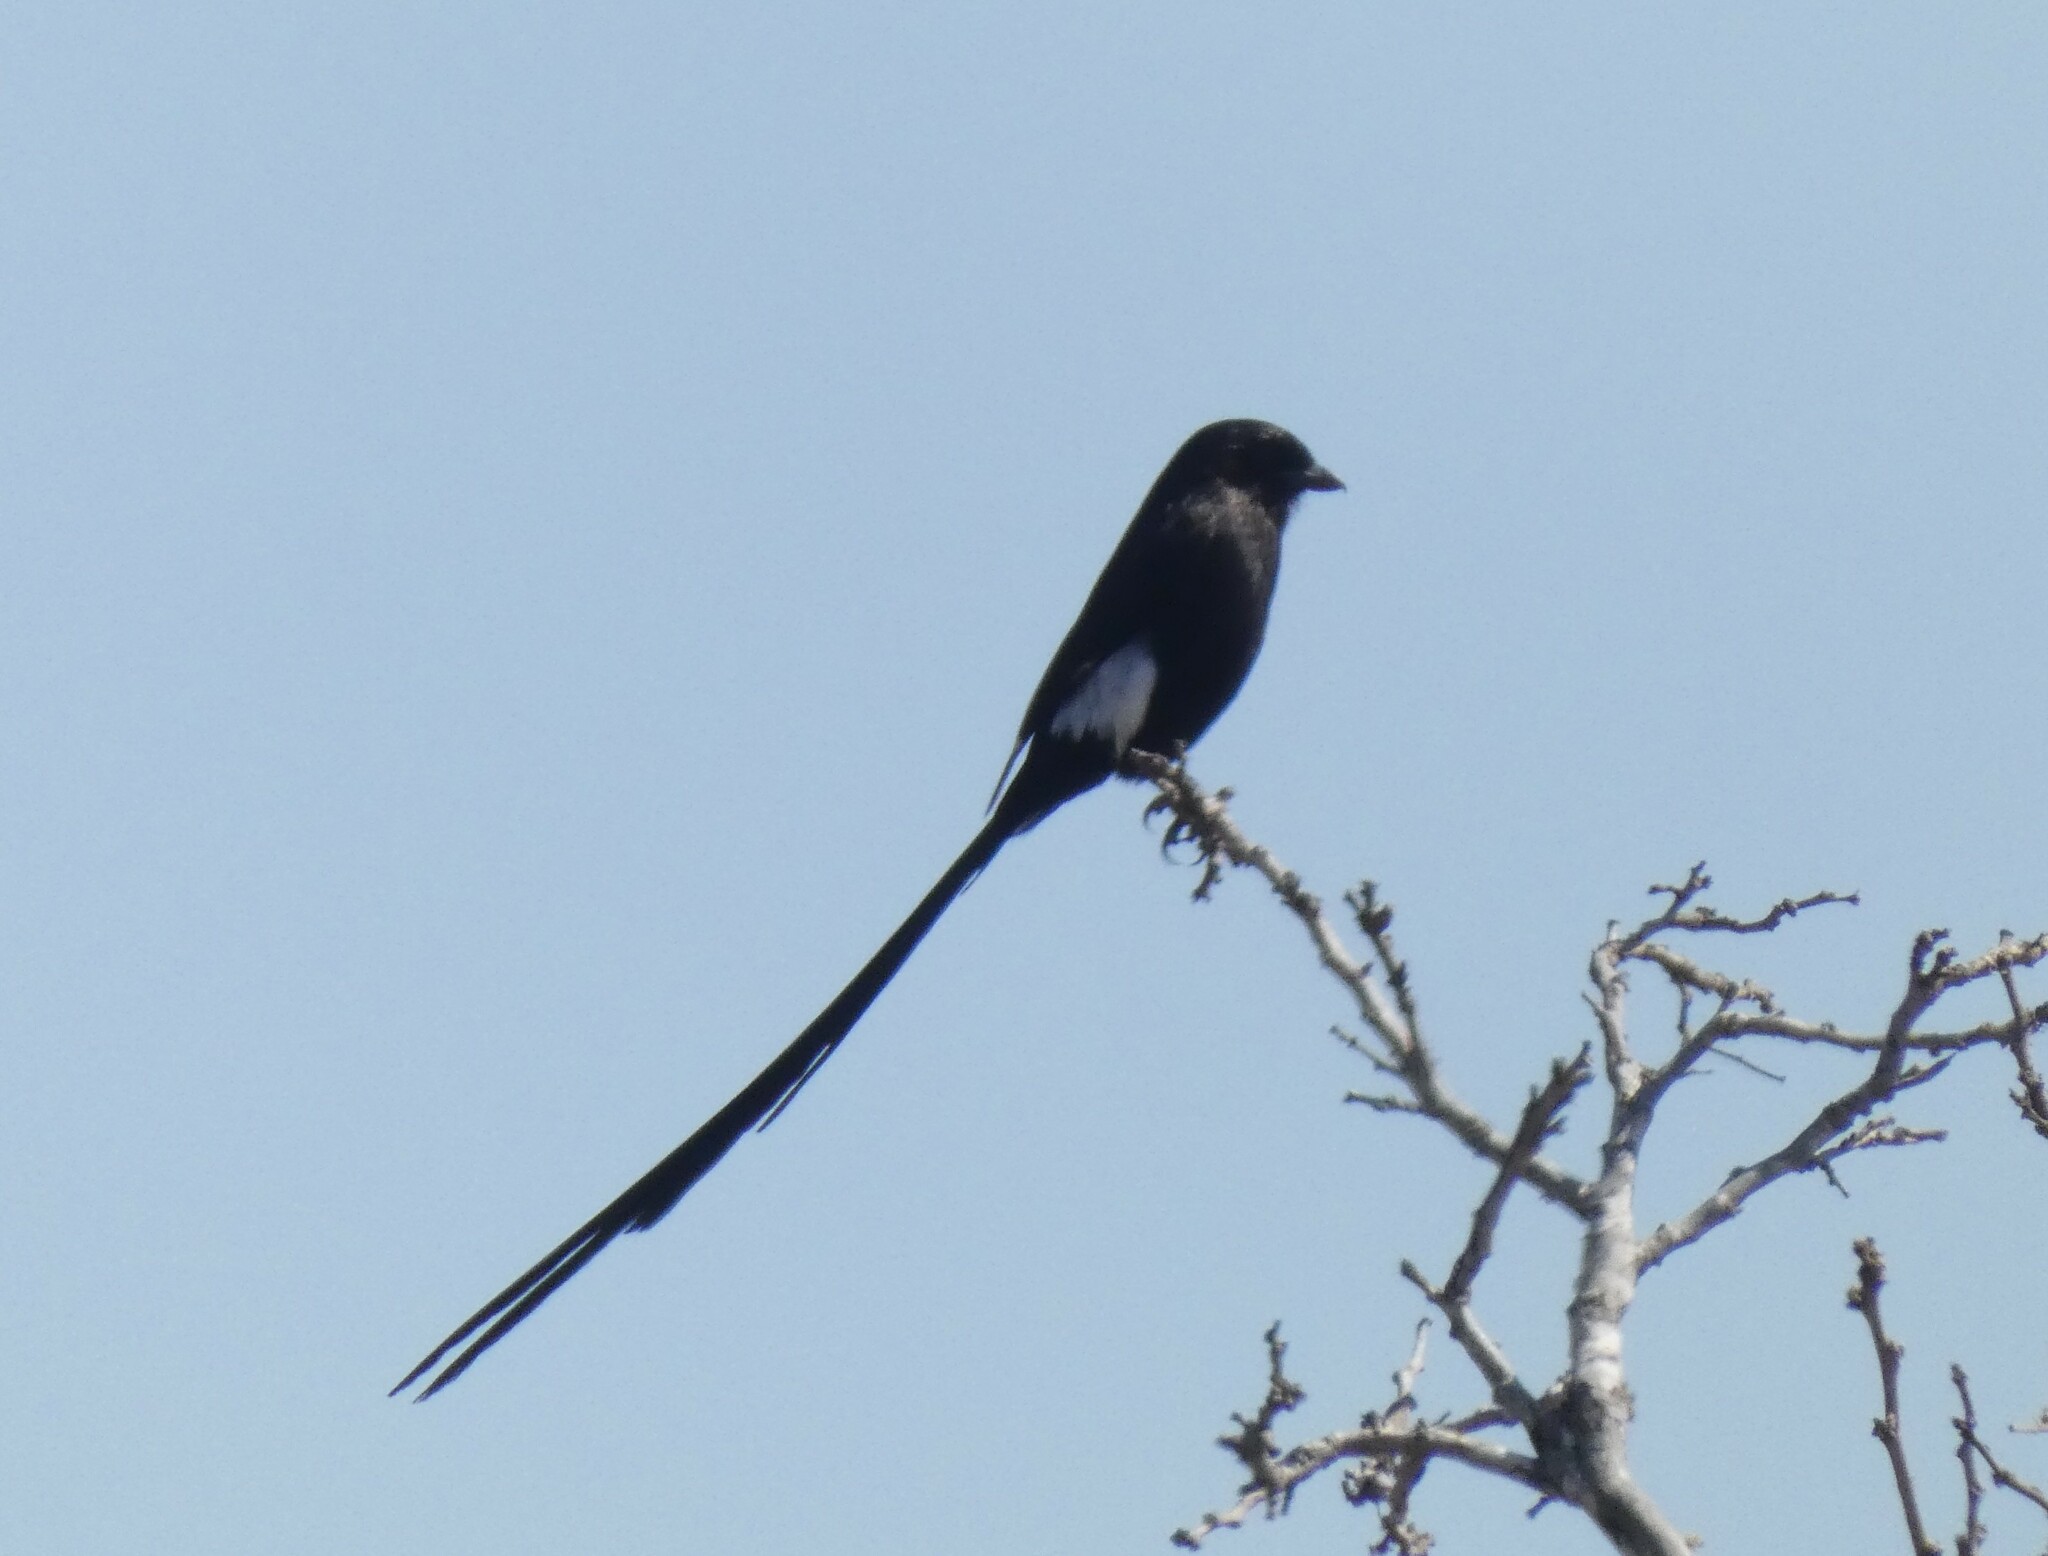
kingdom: Animalia
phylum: Chordata
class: Aves
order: Passeriformes
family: Laniidae
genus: Urolestes
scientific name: Urolestes melanoleucus
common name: Magpie shrike
